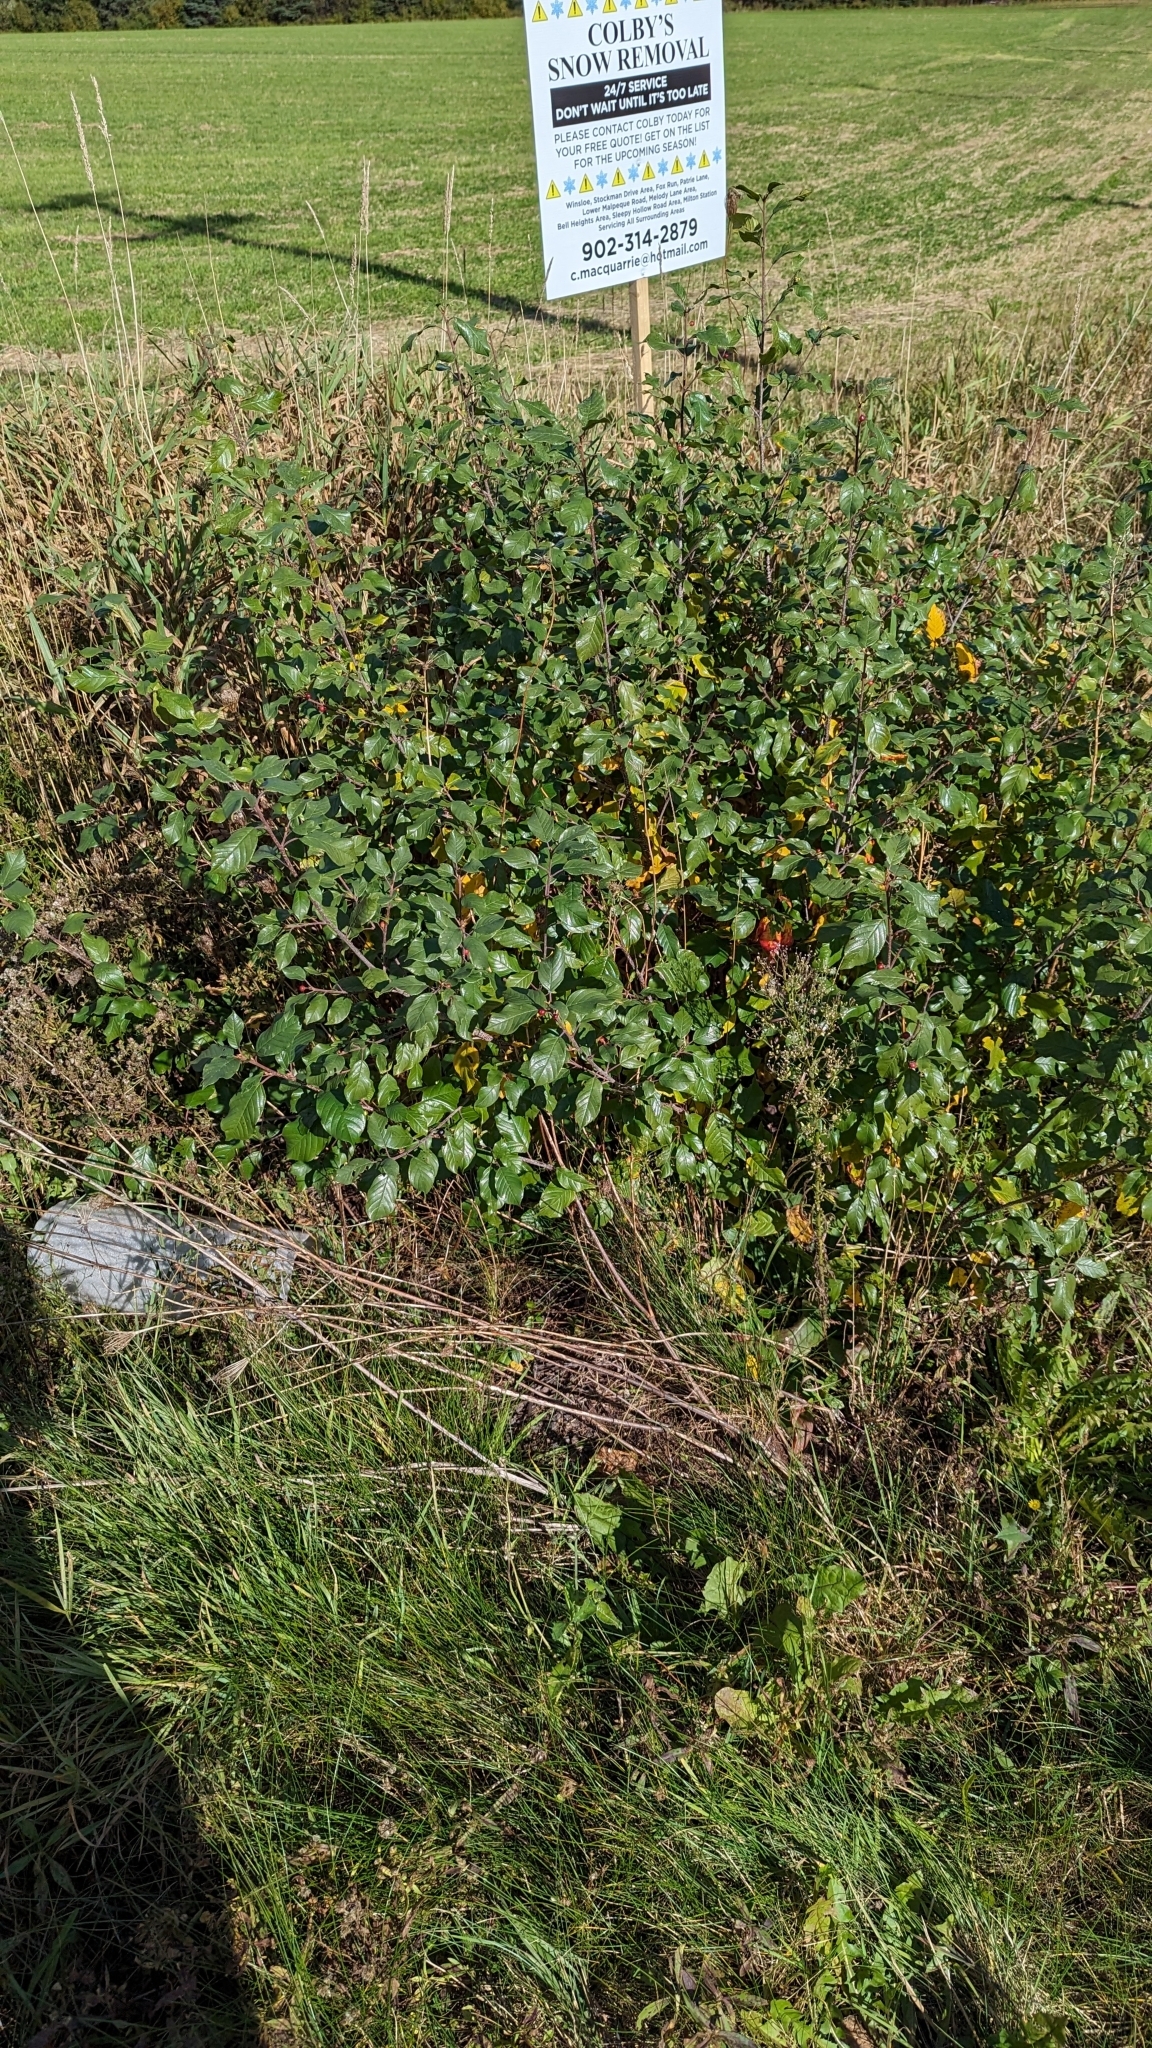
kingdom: Plantae
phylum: Tracheophyta
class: Magnoliopsida
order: Rosales
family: Rhamnaceae
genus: Frangula
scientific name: Frangula alnus
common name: Alder buckthorn
